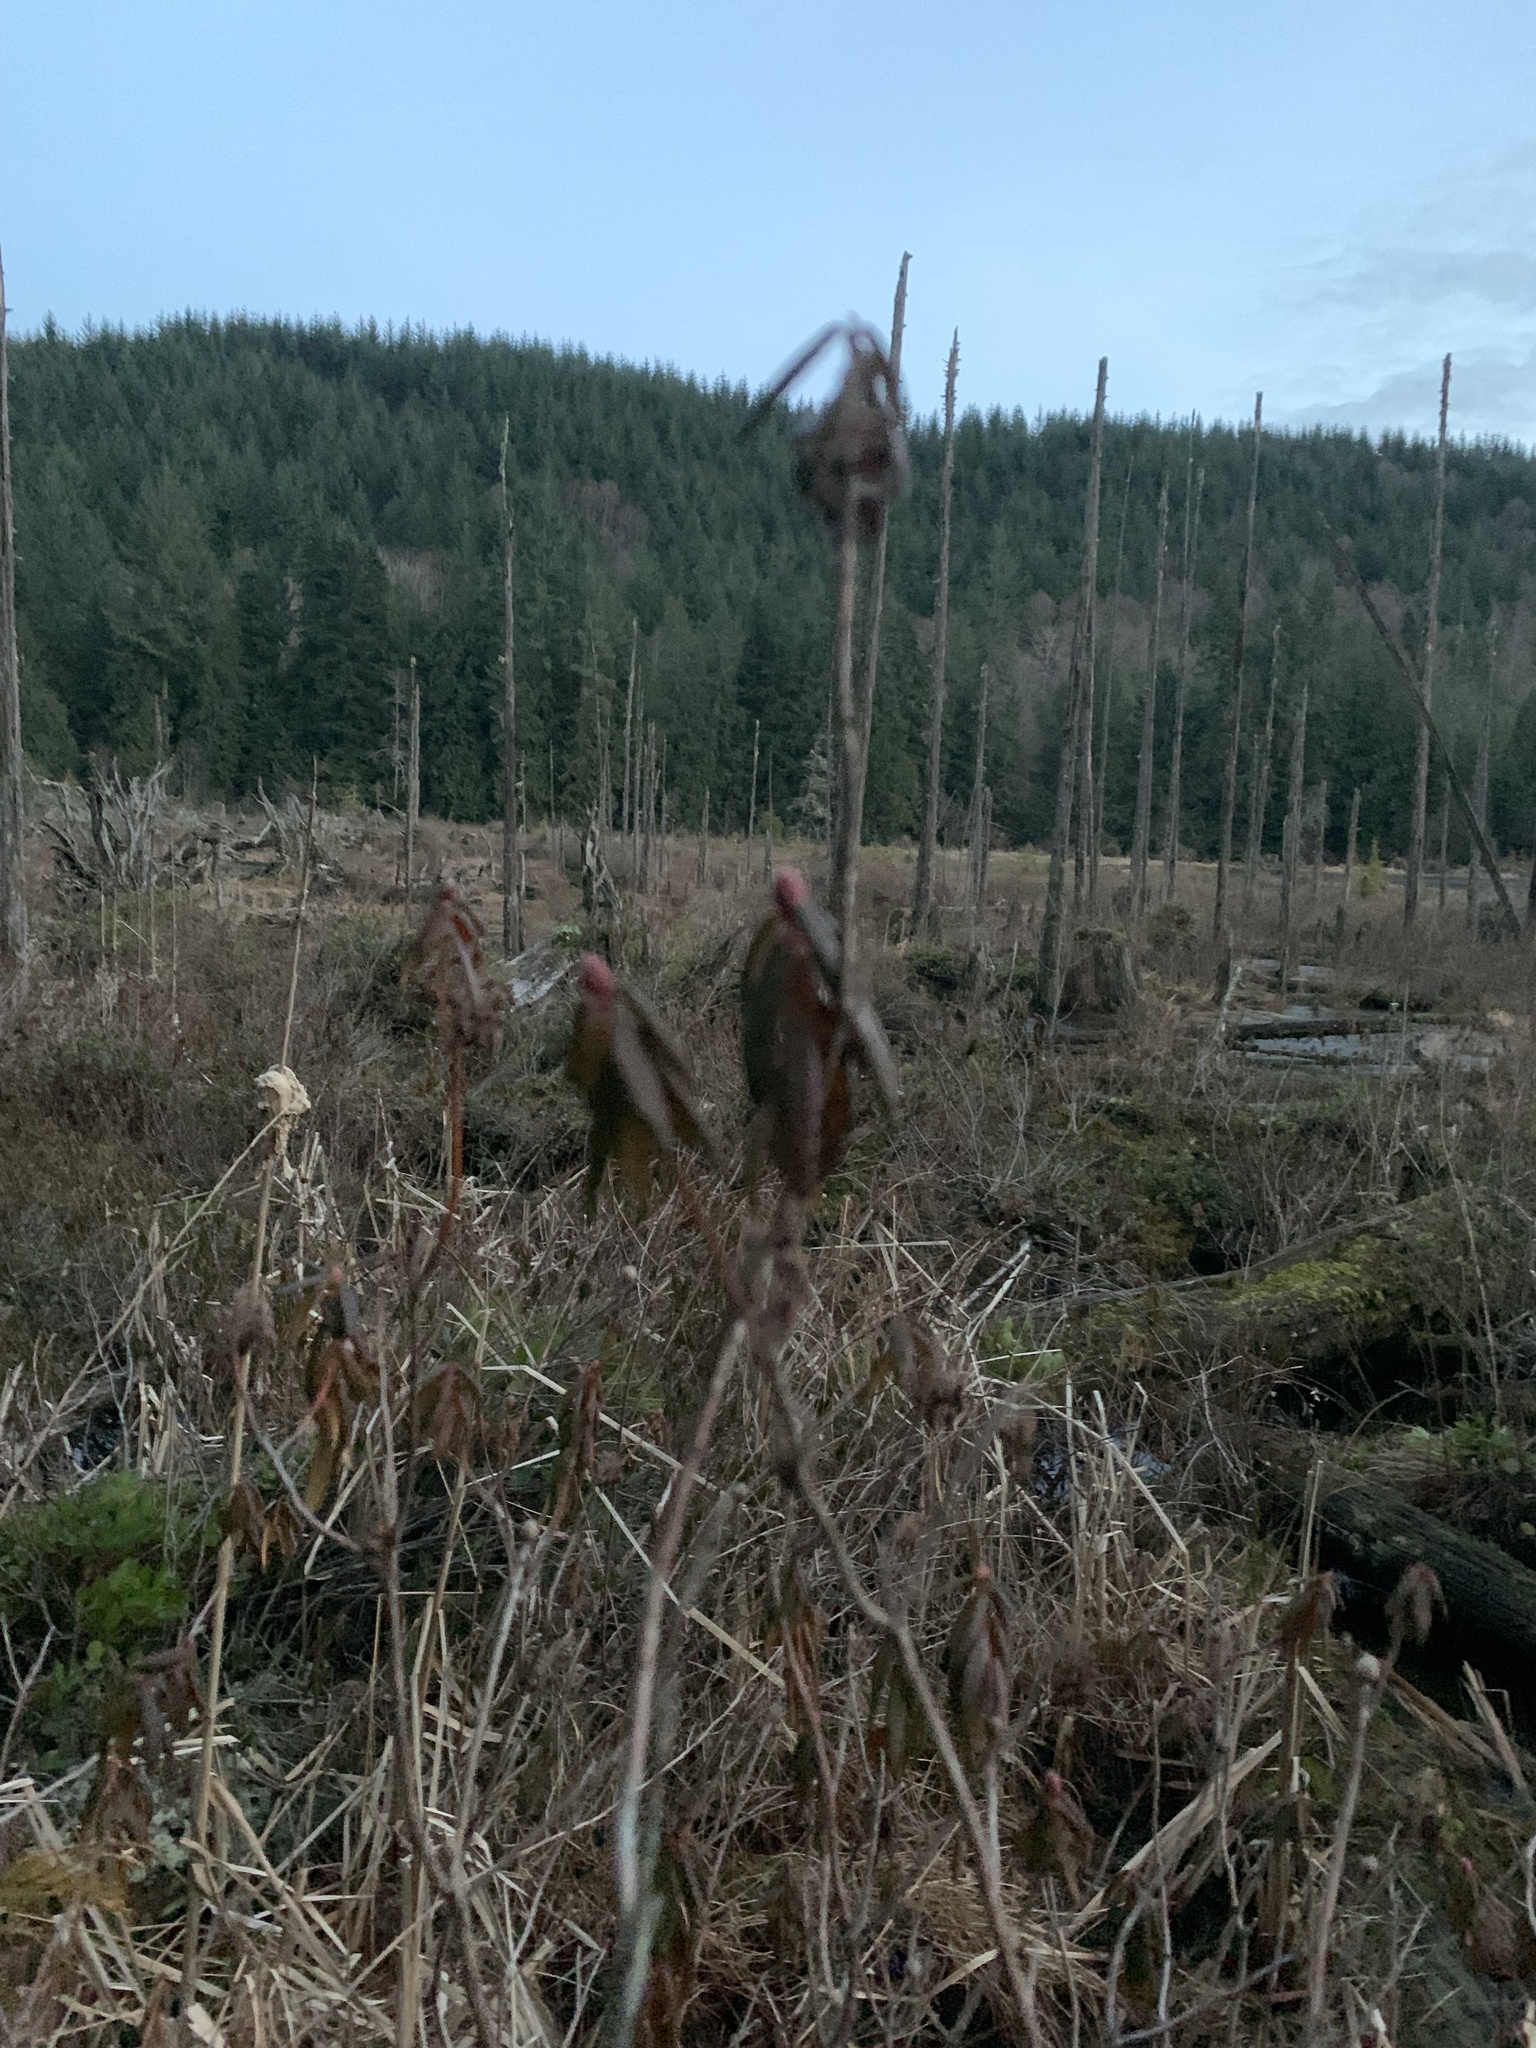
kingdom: Plantae
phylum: Tracheophyta
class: Magnoliopsida
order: Ericales
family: Ericaceae
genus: Rhododendron
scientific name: Rhododendron groenlandicum
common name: Bog labrador tea
